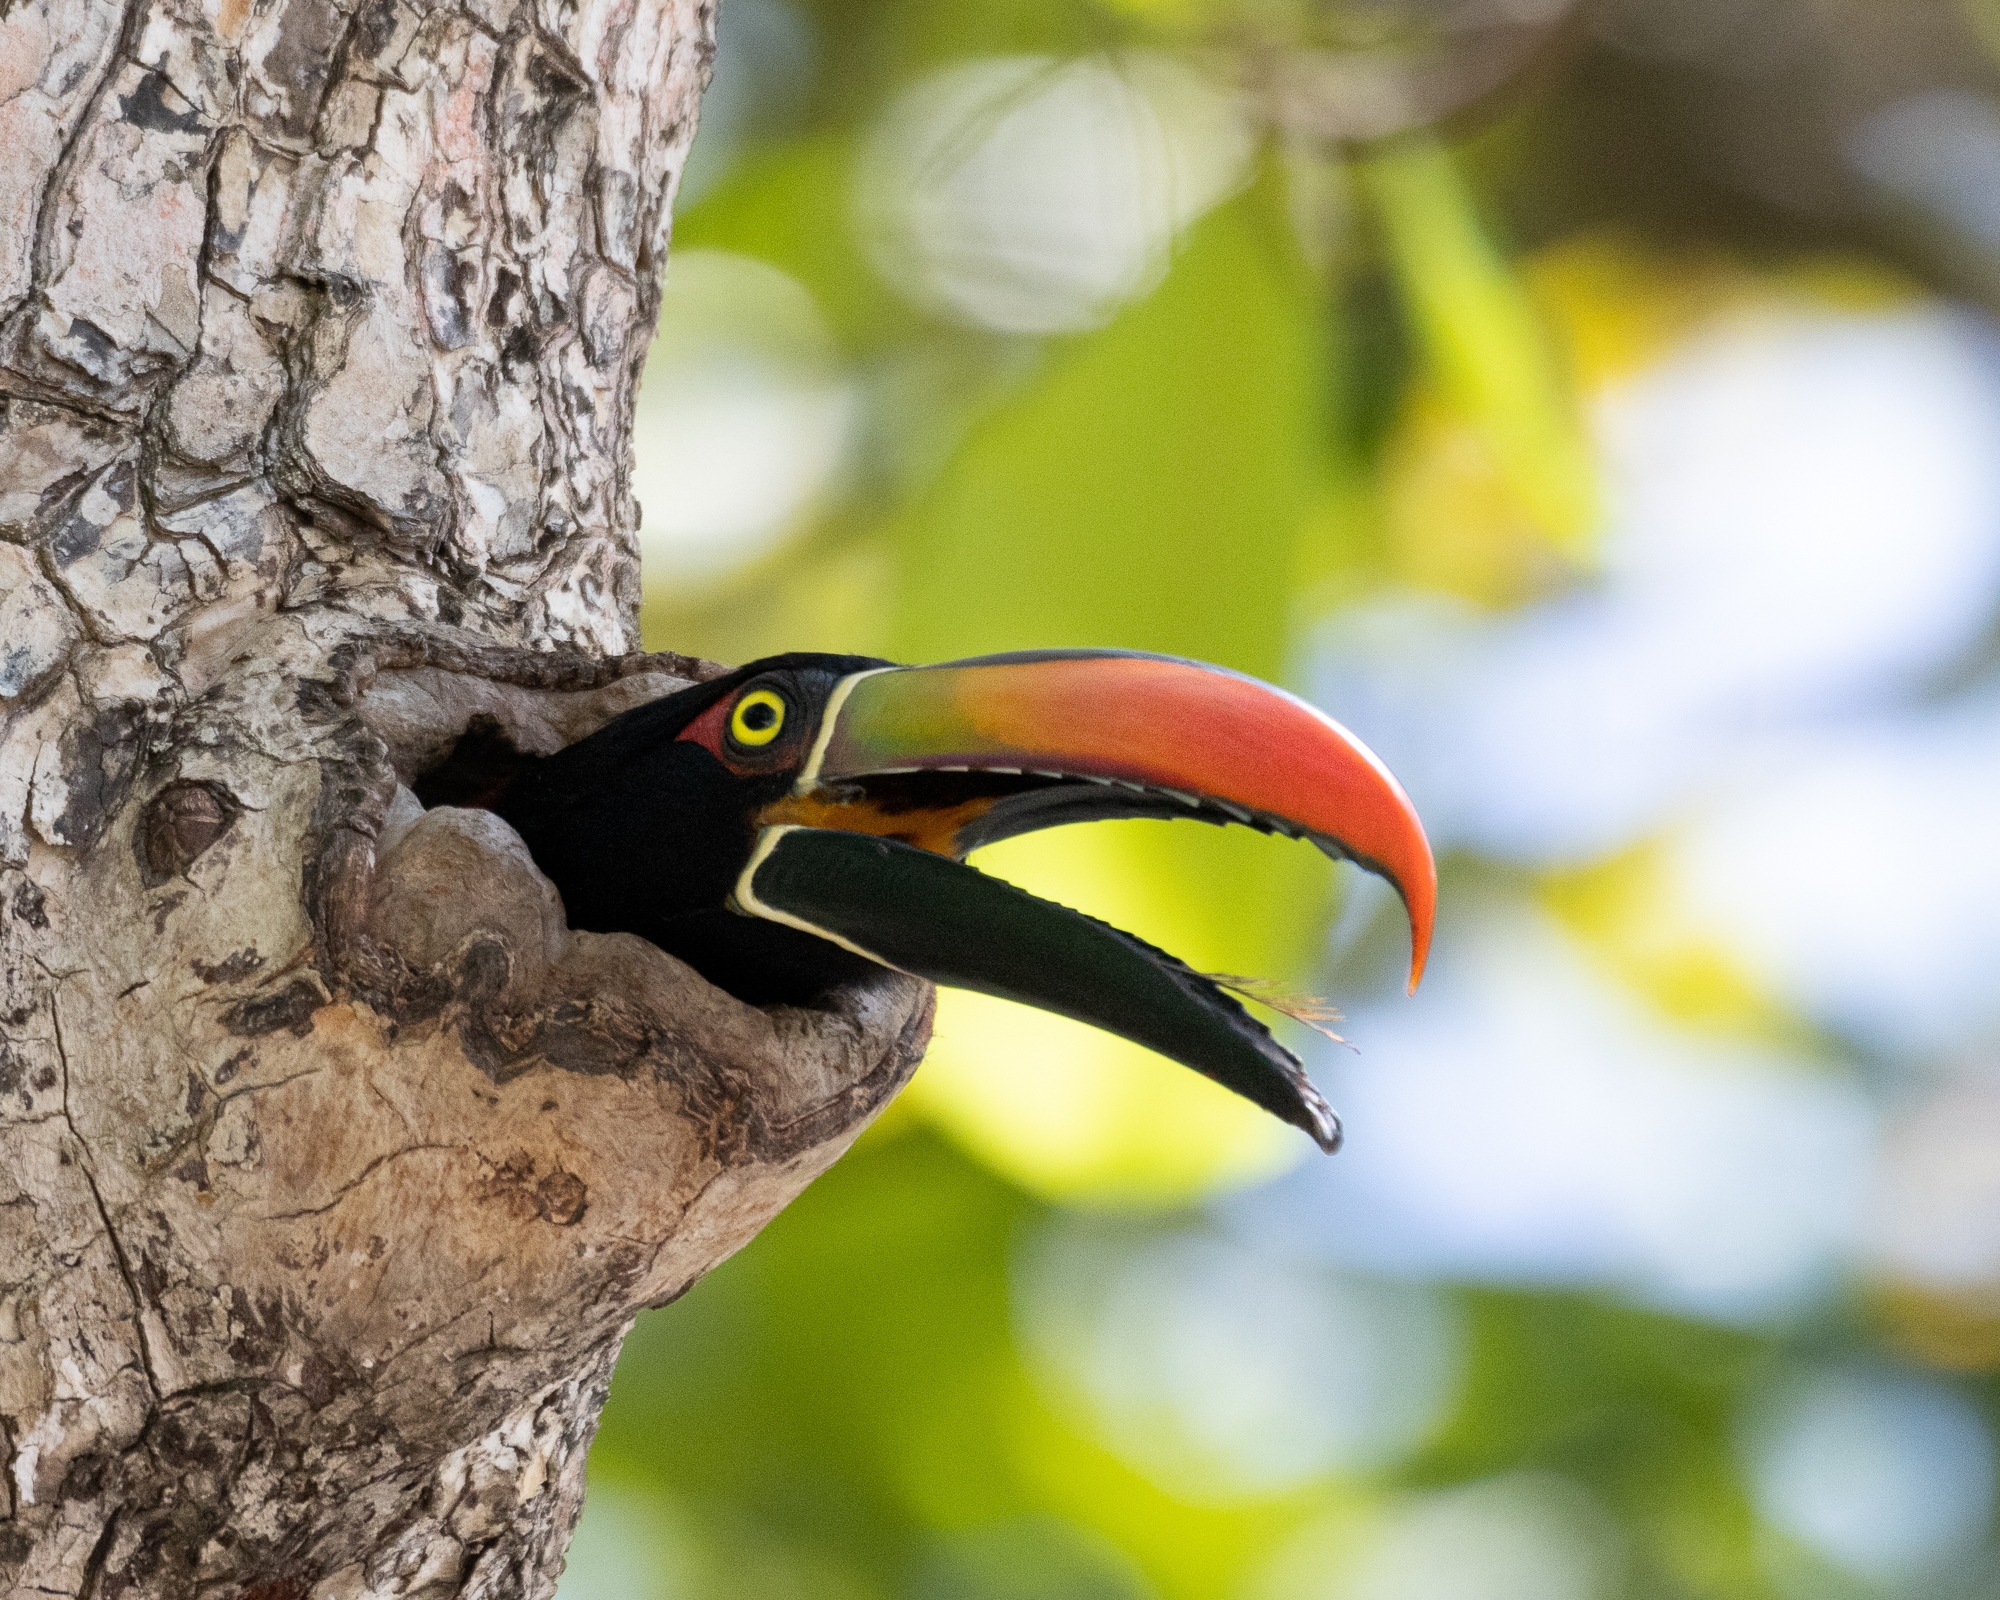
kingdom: Animalia
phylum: Chordata
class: Aves
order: Piciformes
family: Ramphastidae
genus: Pteroglossus
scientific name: Pteroglossus frantzii
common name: Fiery-billed aracari
